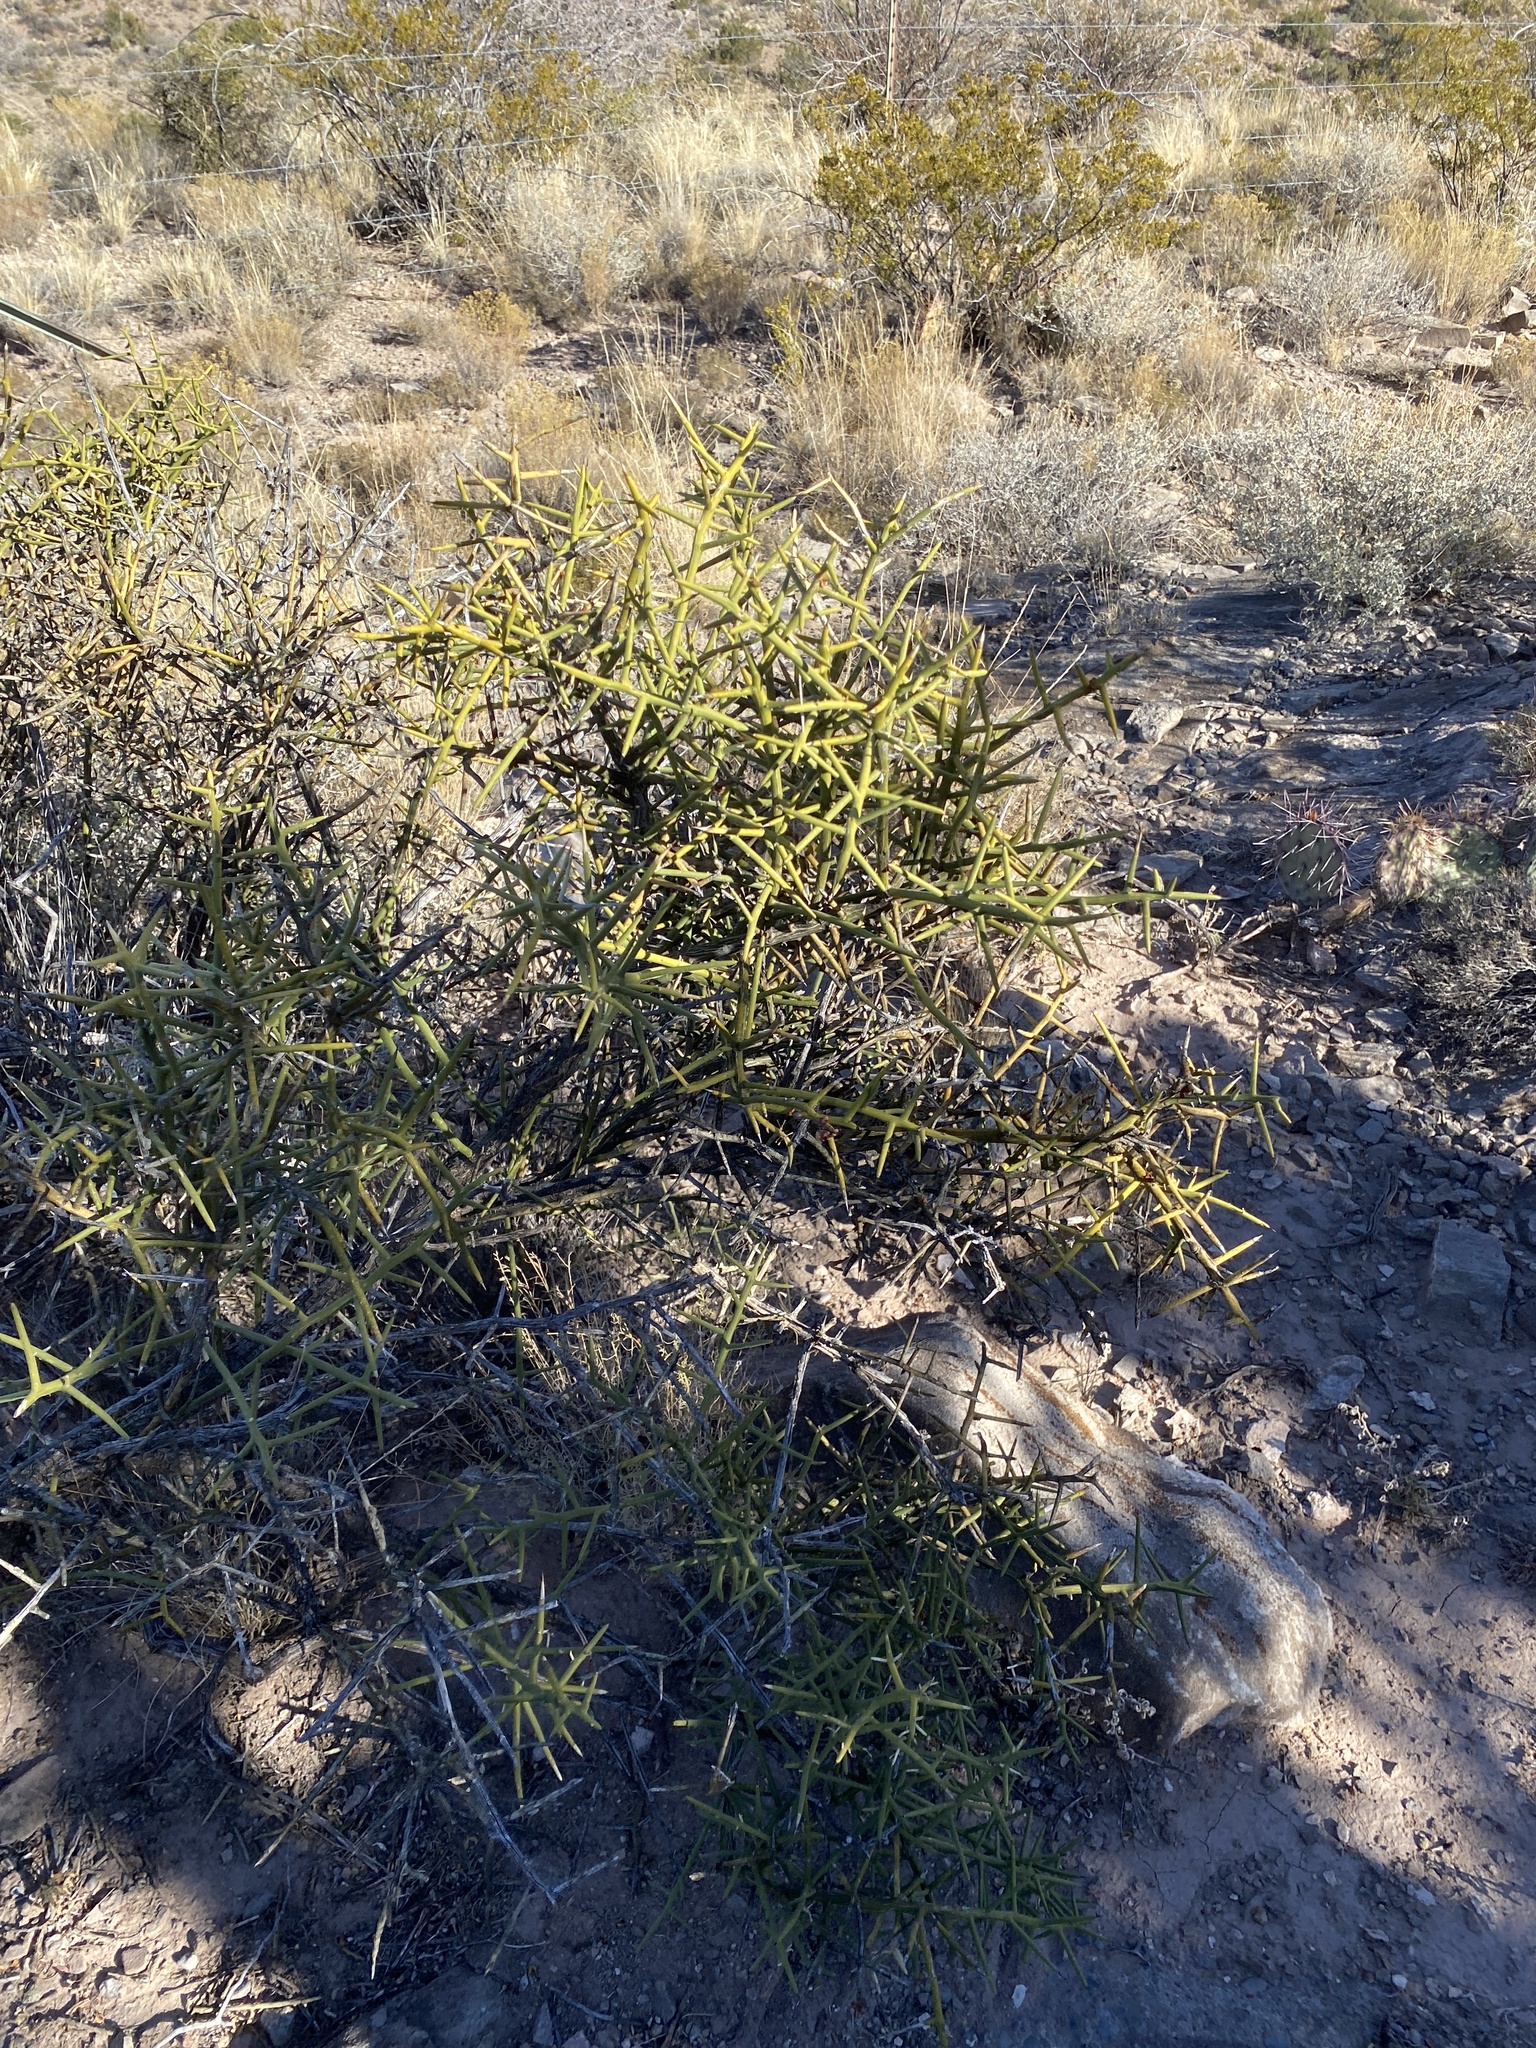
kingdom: Plantae
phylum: Tracheophyta
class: Magnoliopsida
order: Brassicales
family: Koeberliniaceae
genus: Koeberlinia
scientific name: Koeberlinia spinosa
